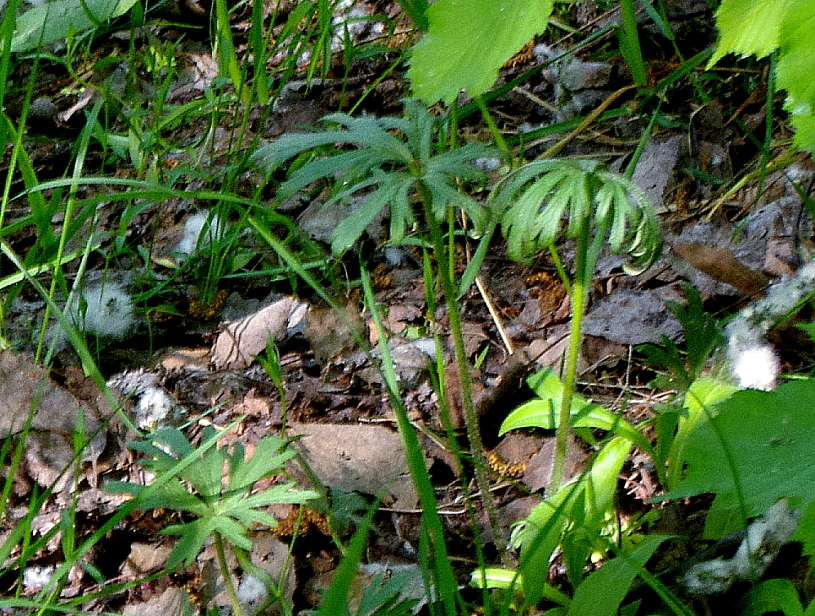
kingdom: Plantae
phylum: Tracheophyta
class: Magnoliopsida
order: Ranunculales
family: Ranunculaceae
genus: Ranunculus
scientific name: Ranunculus polyanthemos
